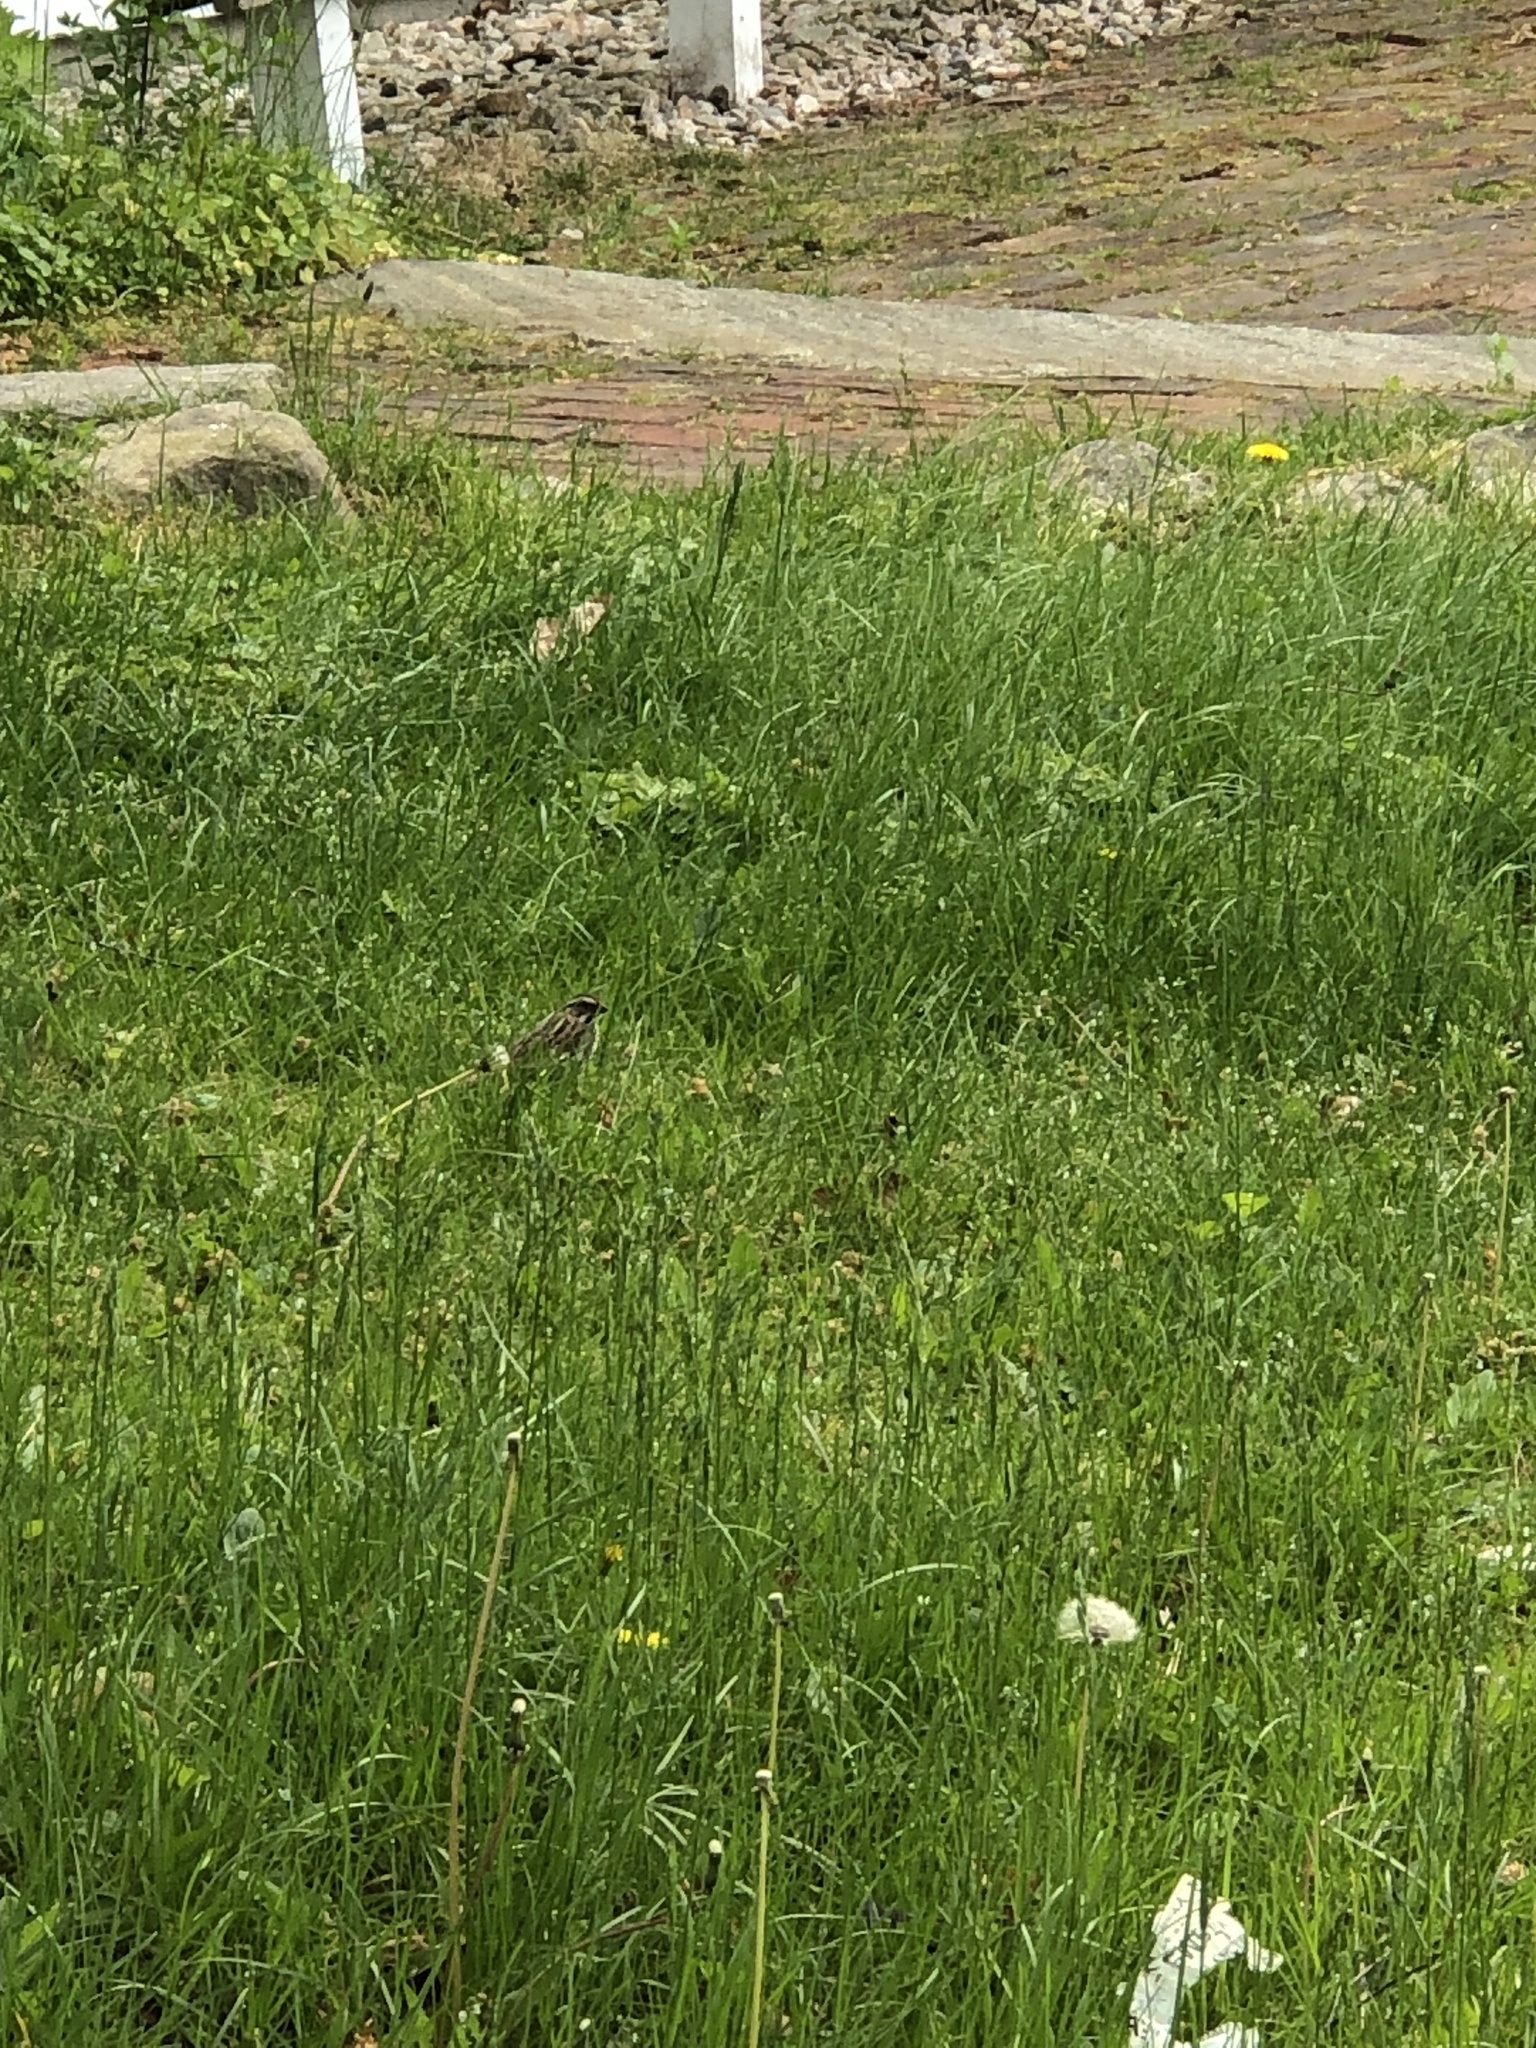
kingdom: Animalia
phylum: Chordata
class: Aves
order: Passeriformes
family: Passerellidae
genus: Melospiza
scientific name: Melospiza melodia
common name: Song sparrow
